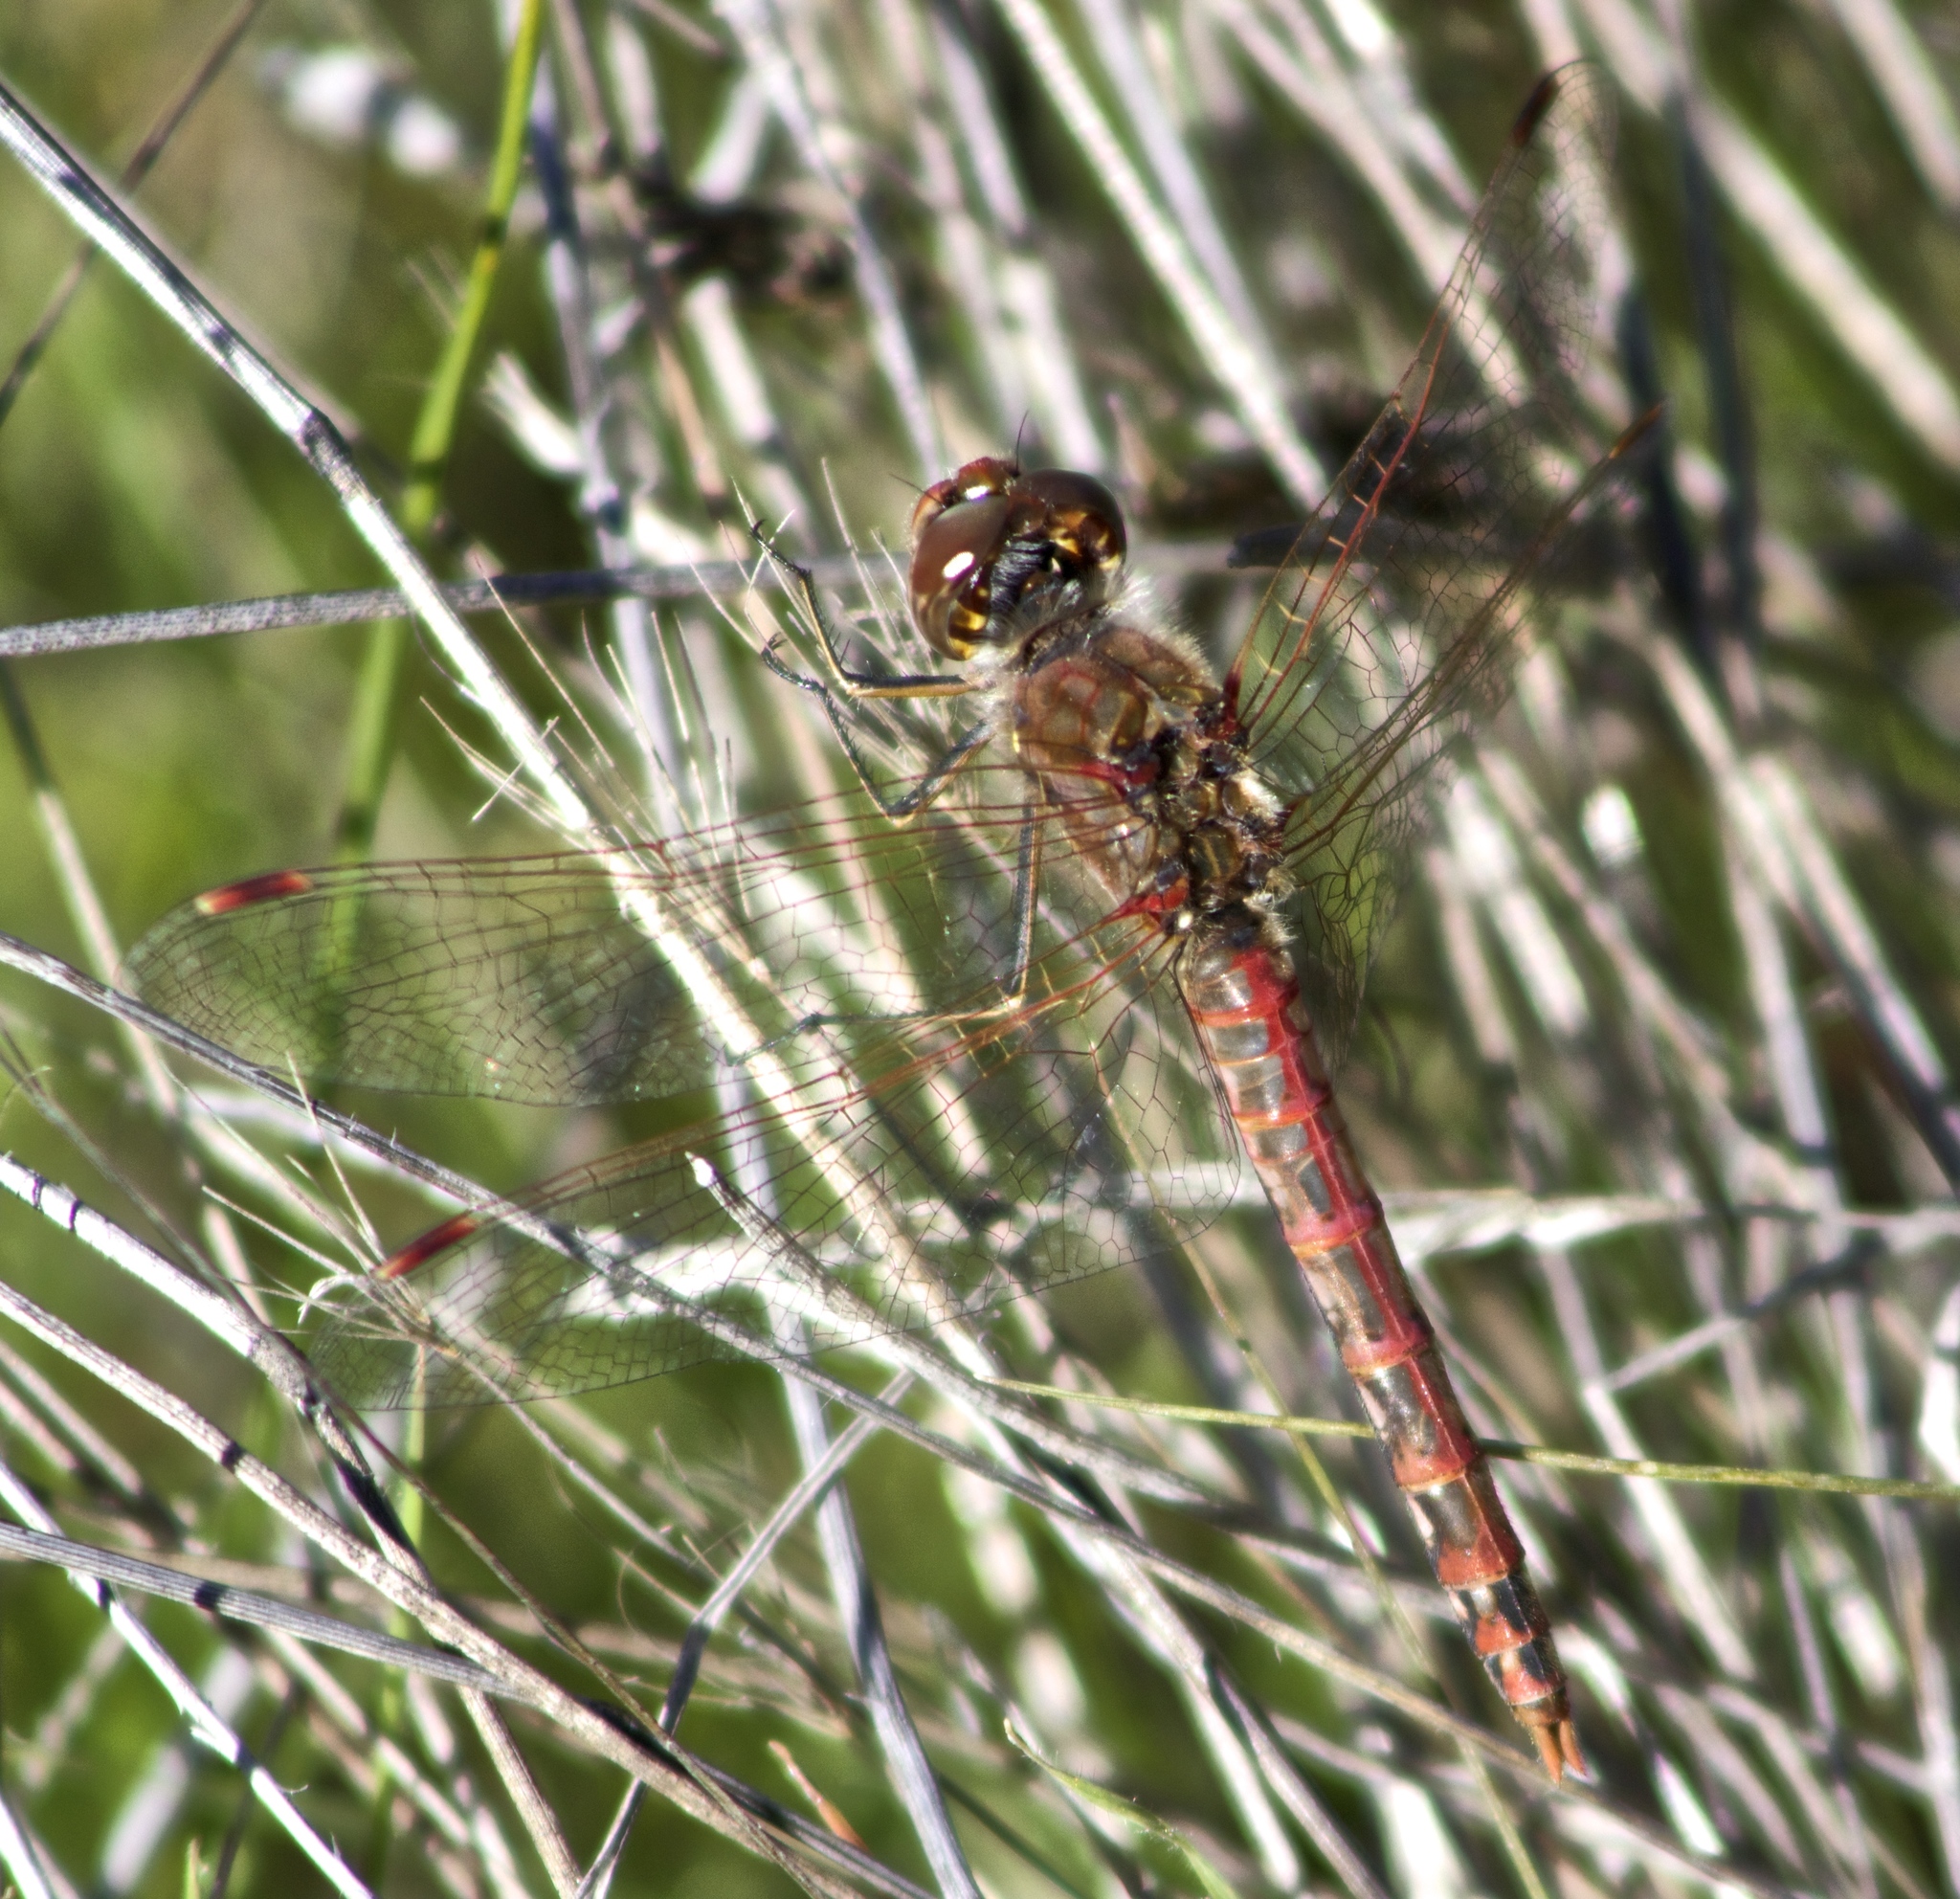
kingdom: Animalia
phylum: Arthropoda
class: Insecta
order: Odonata
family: Libellulidae
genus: Sympetrum
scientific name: Sympetrum corruptum
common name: Variegated meadowhawk
